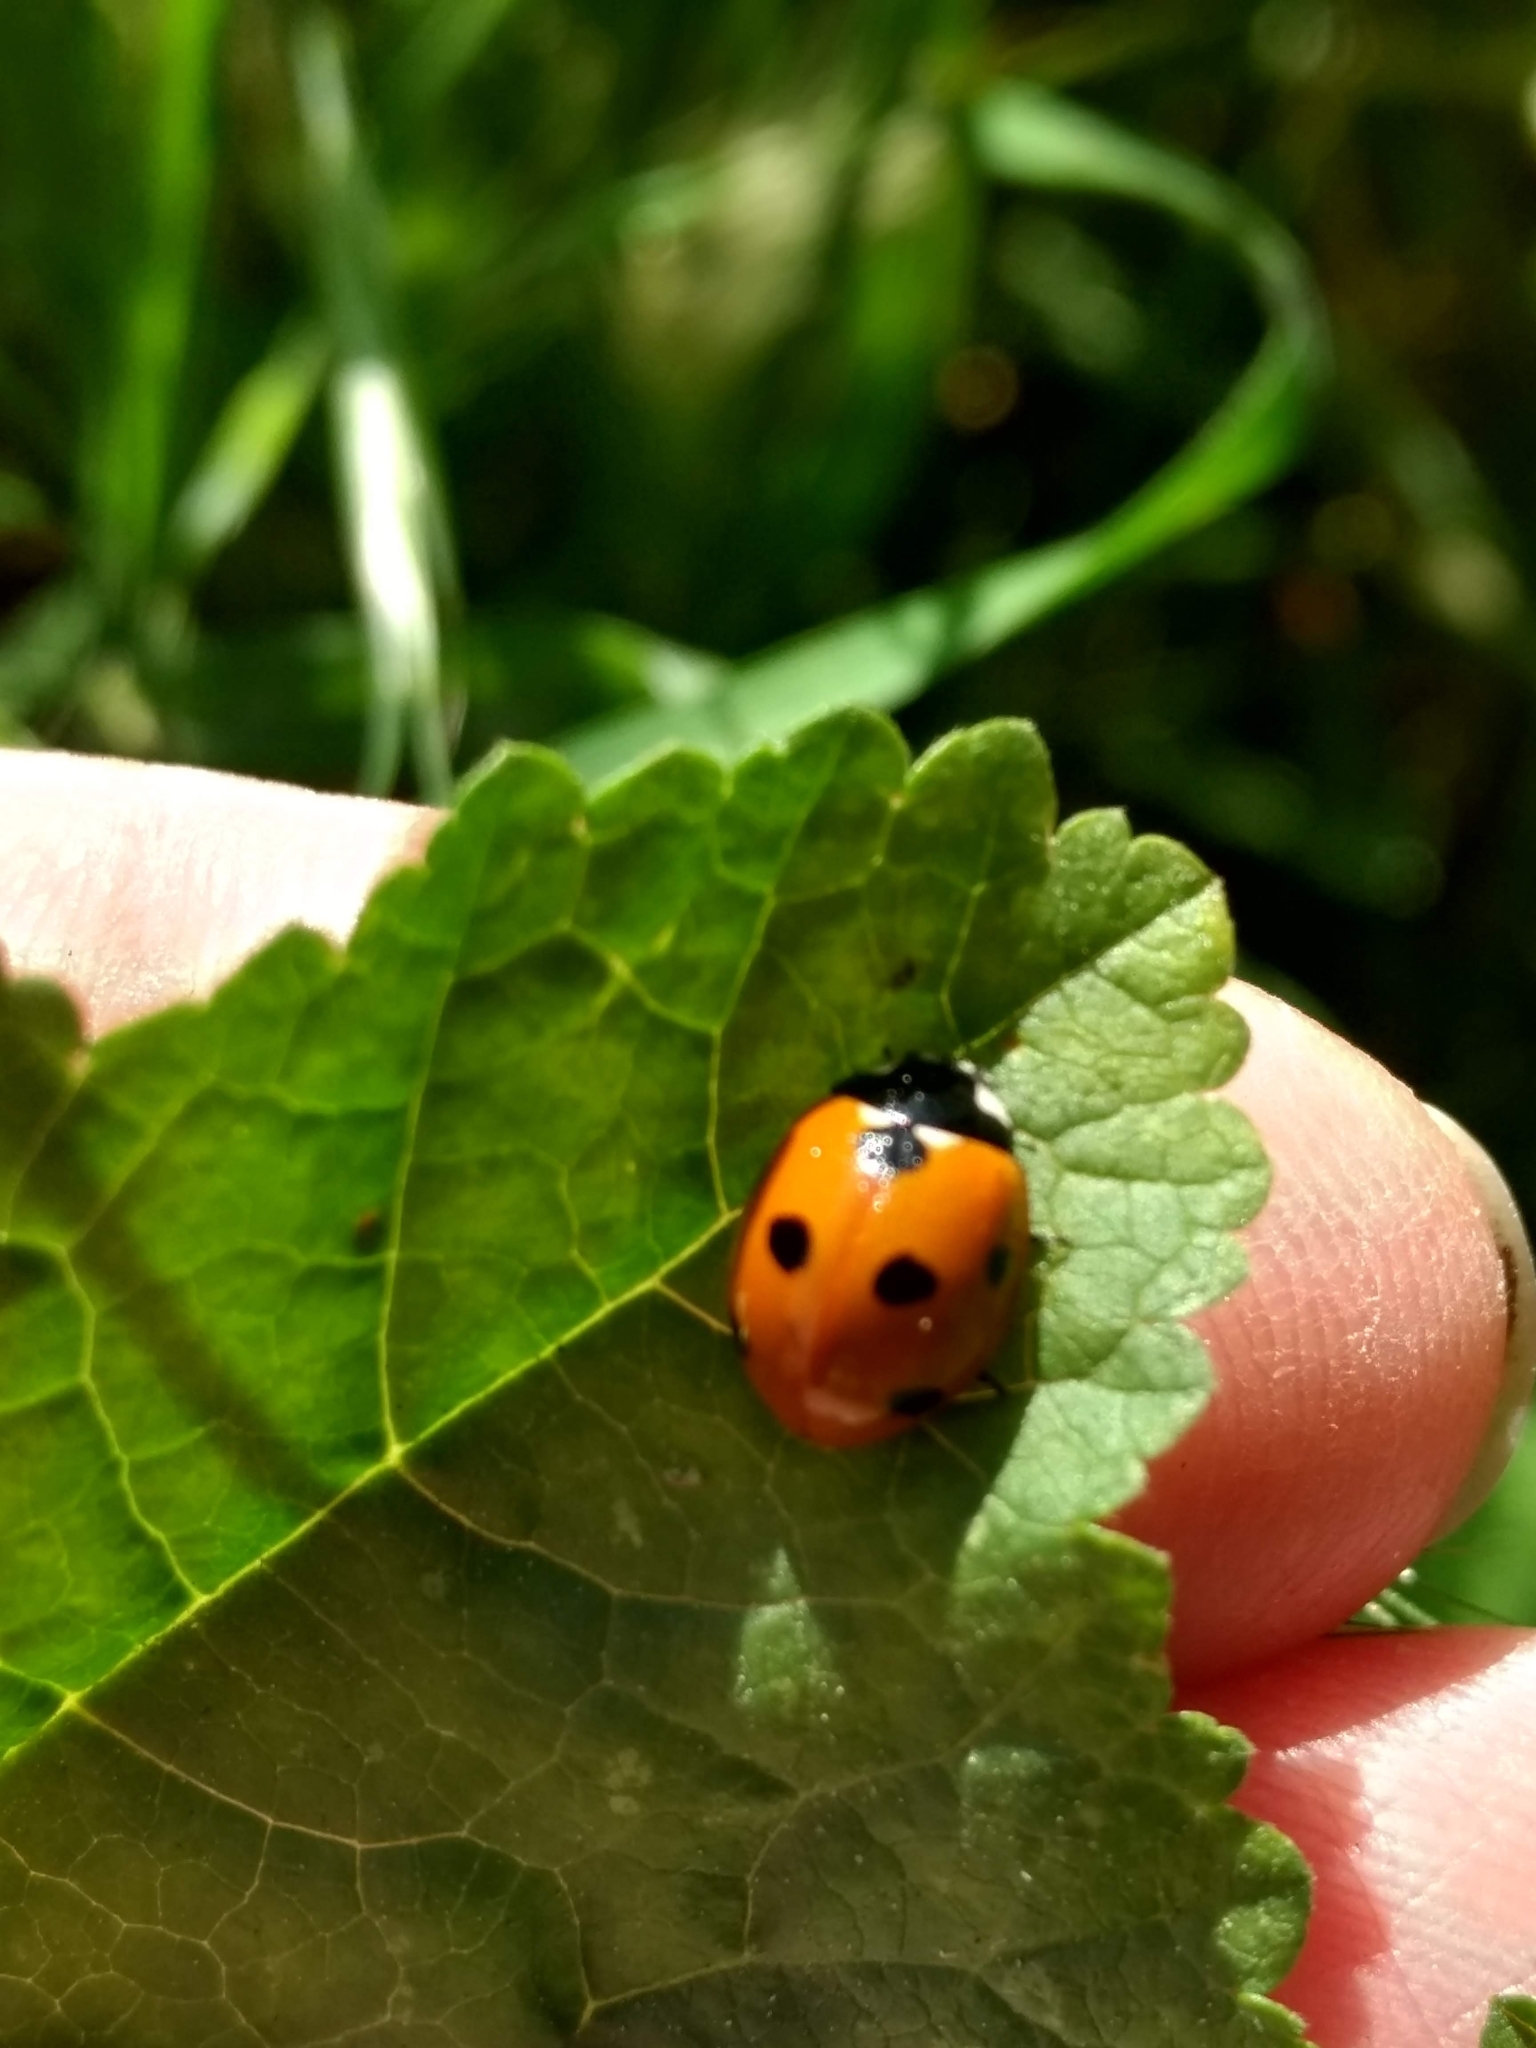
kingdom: Animalia
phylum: Arthropoda
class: Insecta
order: Coleoptera
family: Coccinellidae
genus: Coccinella
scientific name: Coccinella septempunctata
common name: Sevenspotted lady beetle
